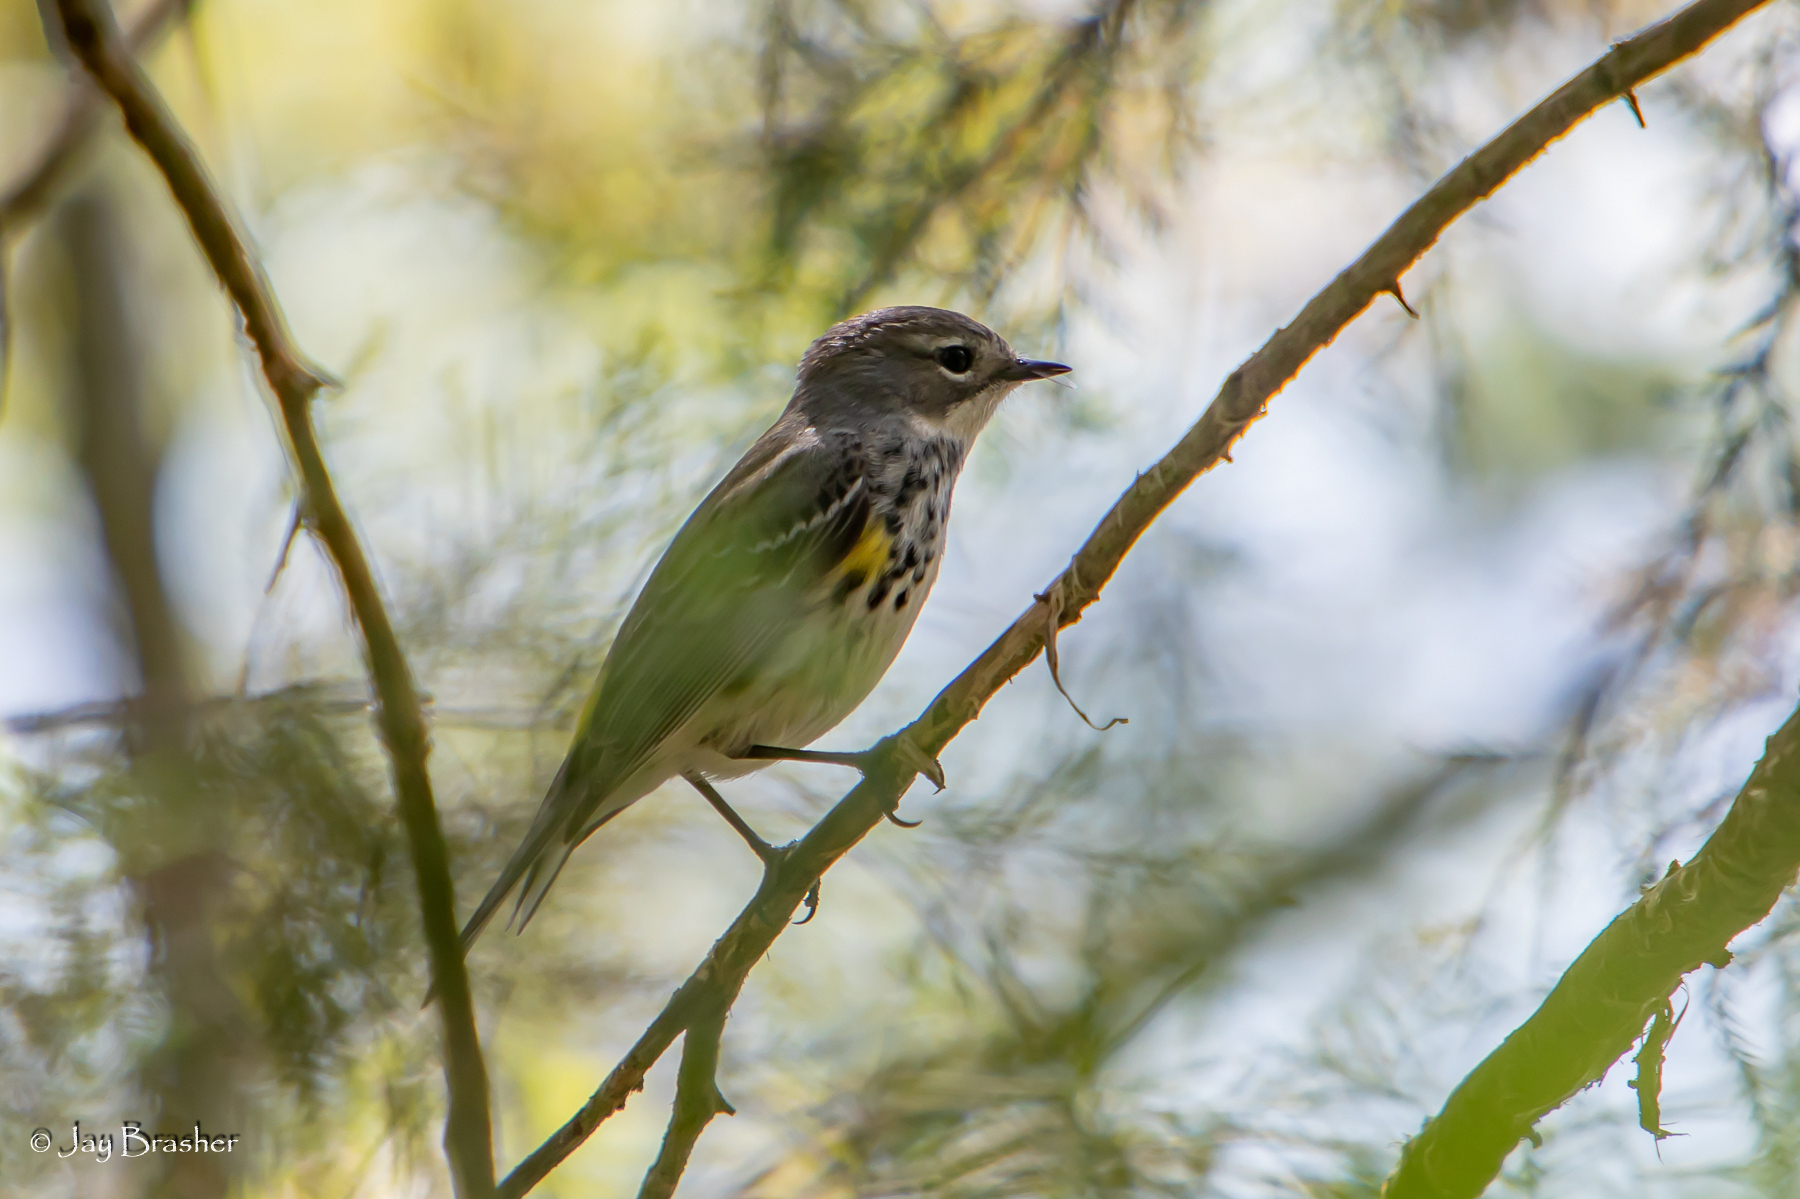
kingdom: Animalia
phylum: Chordata
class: Aves
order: Passeriformes
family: Parulidae
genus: Setophaga
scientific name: Setophaga coronata
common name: Myrtle warbler
